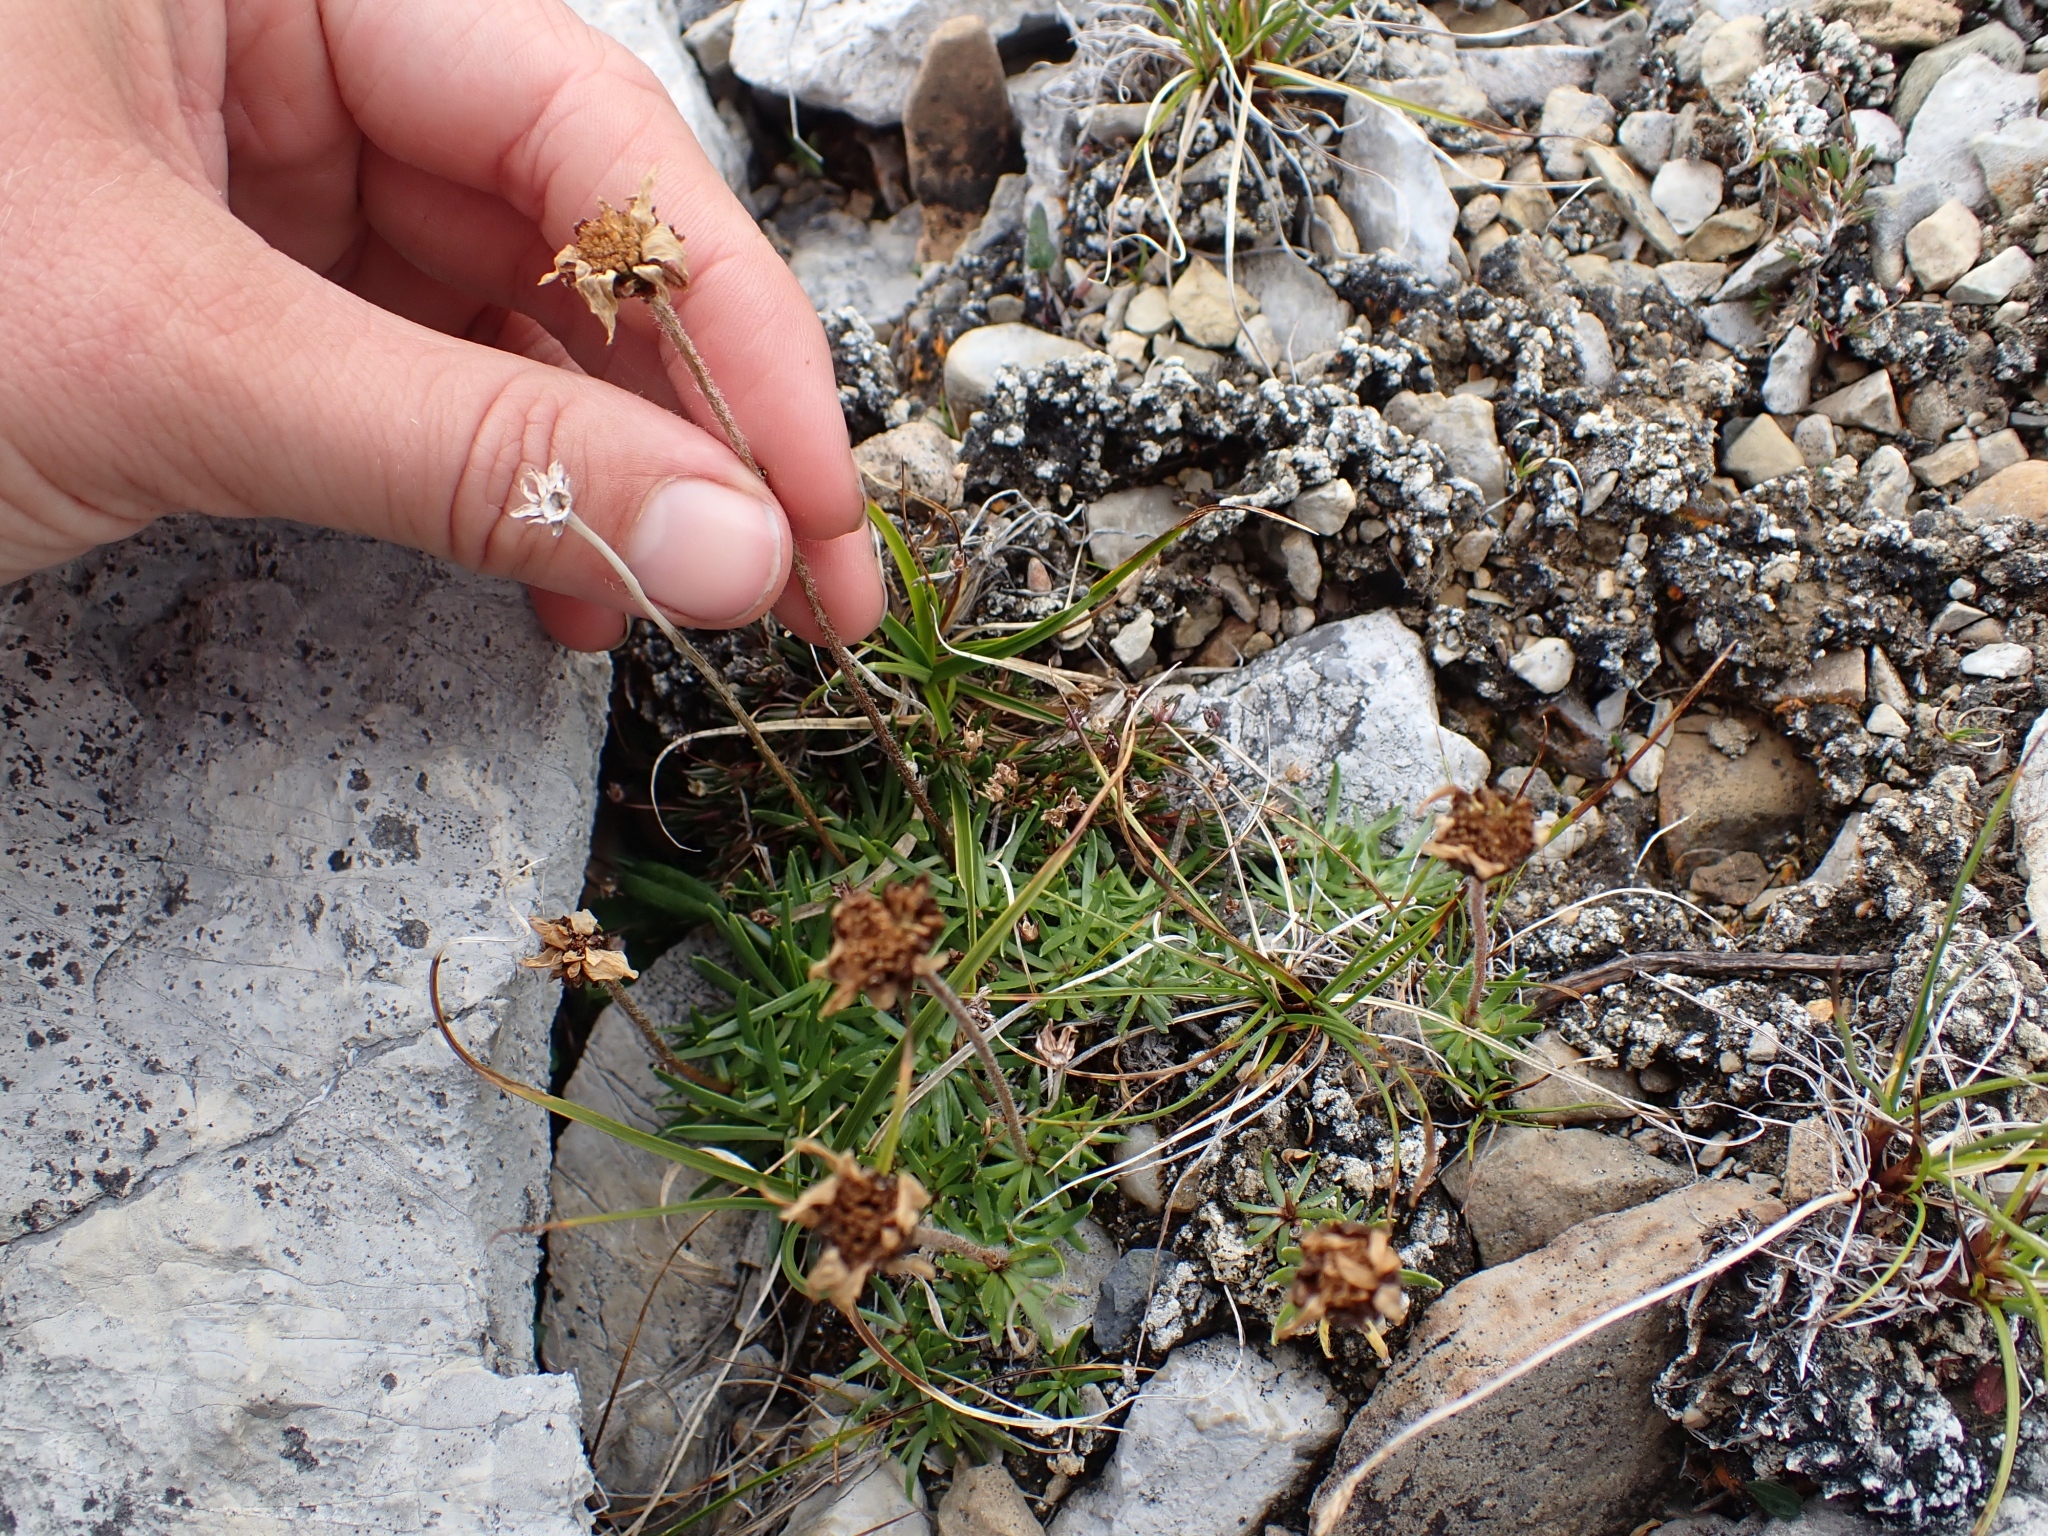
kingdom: Plantae
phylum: Tracheophyta
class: Magnoliopsida
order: Asterales
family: Asteraceae
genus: Arctanthemum
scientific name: Arctanthemum integrifolium
